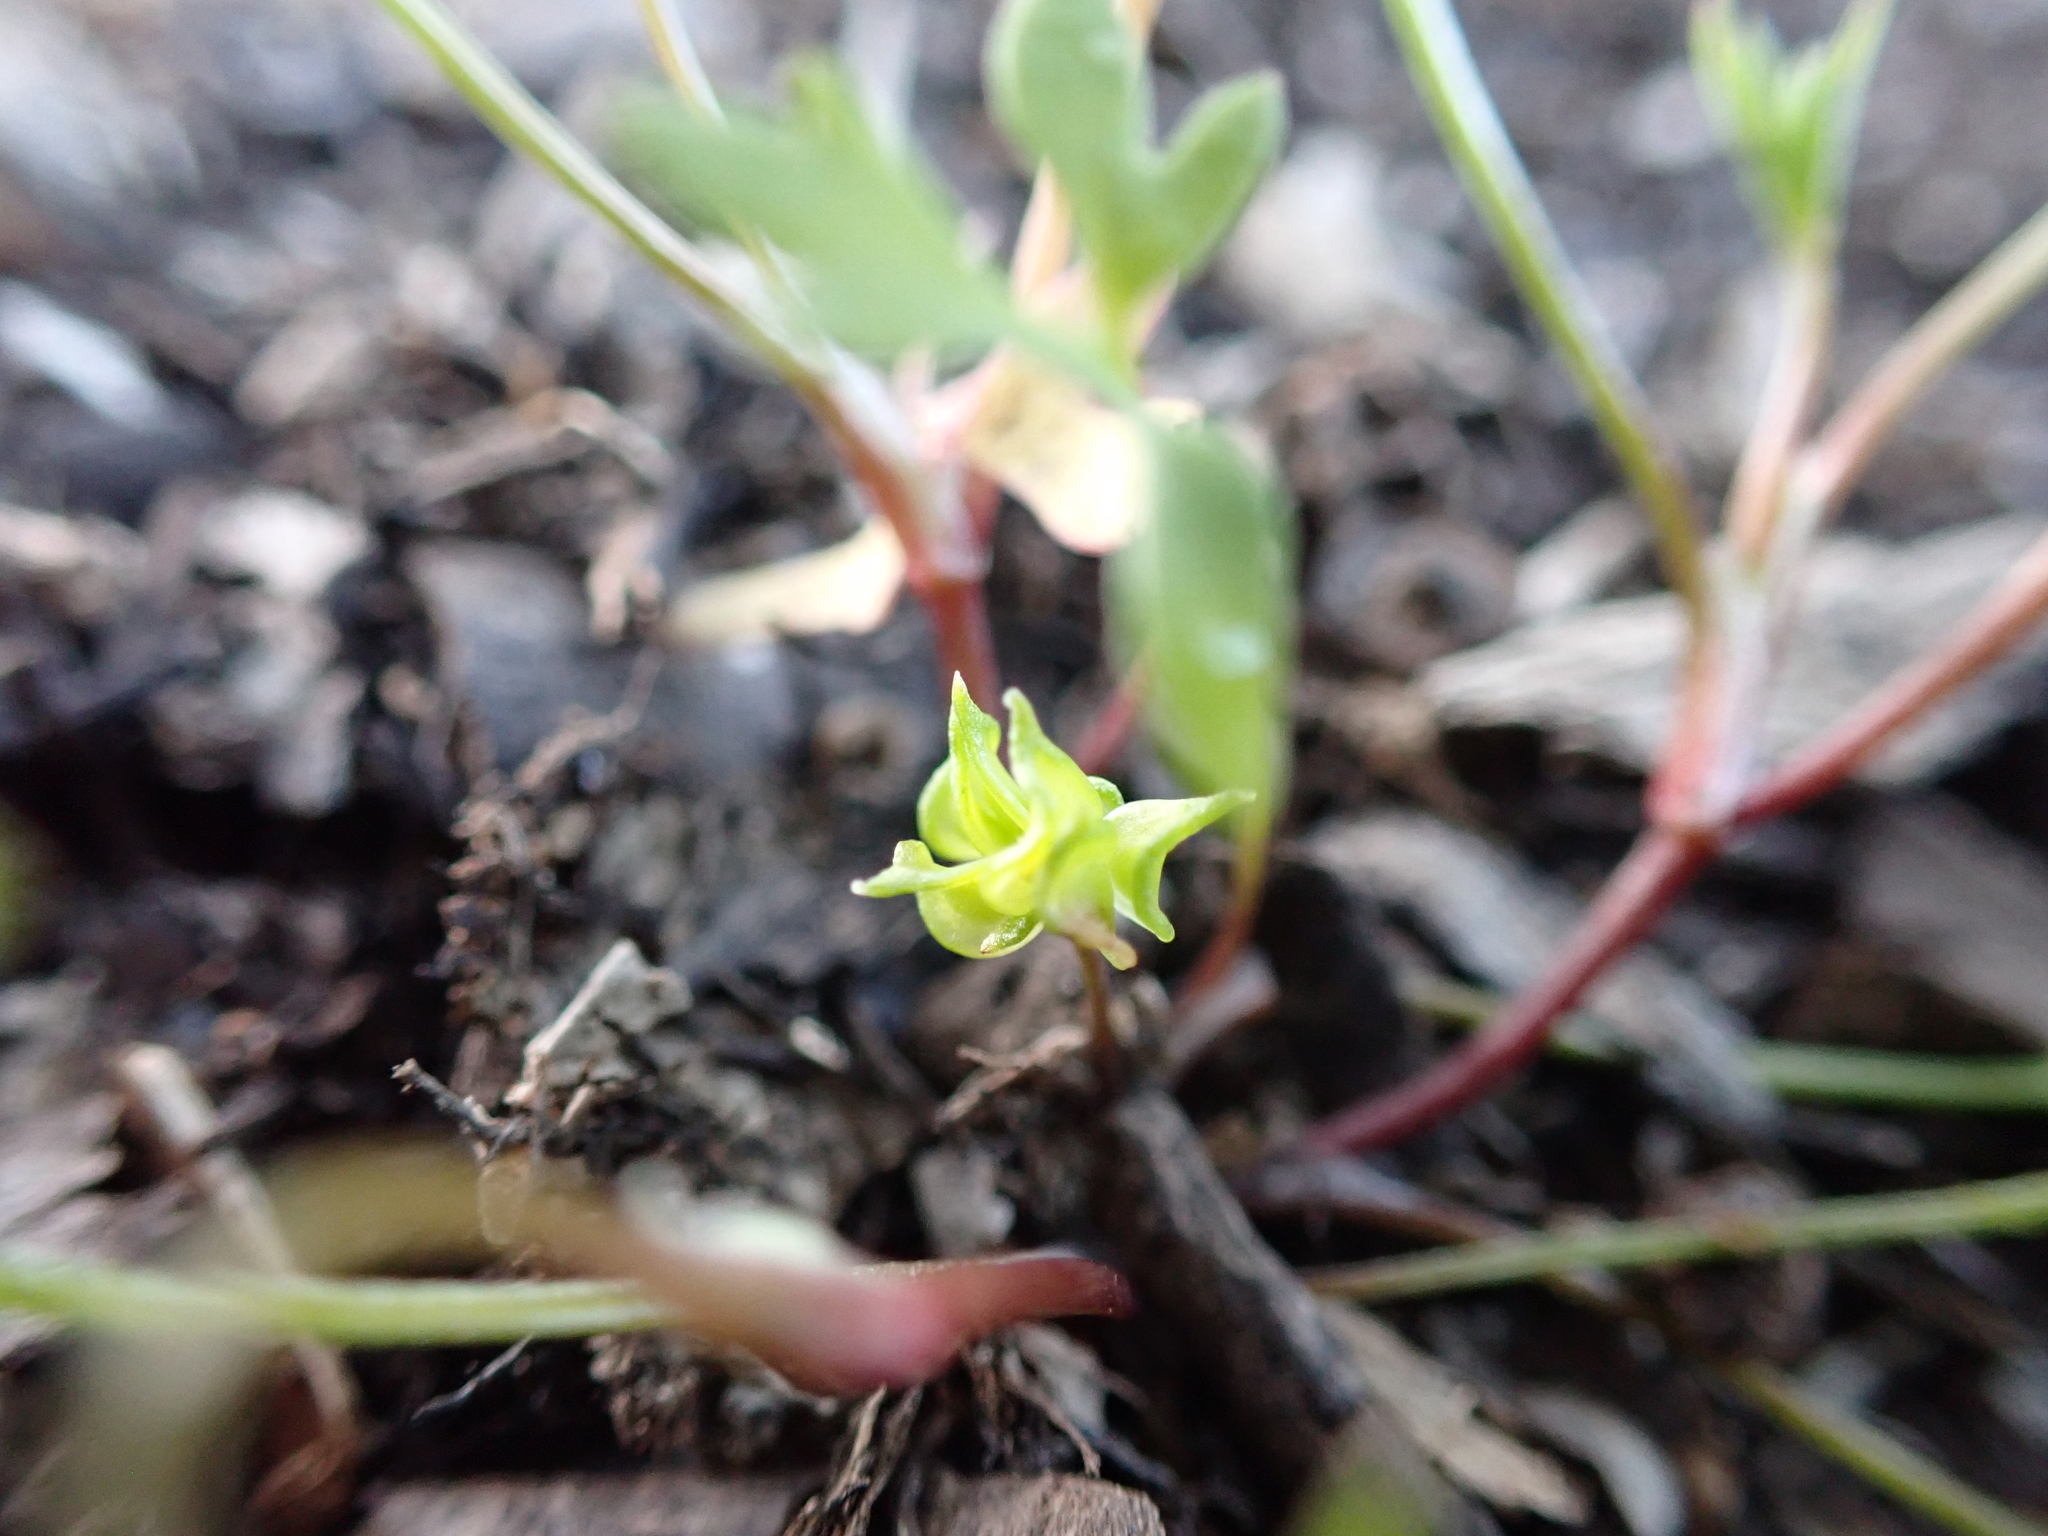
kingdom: Plantae
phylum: Tracheophyta
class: Magnoliopsida
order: Ranunculales
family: Ranunculaceae
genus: Ranunculus
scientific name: Ranunculus pentandrus
